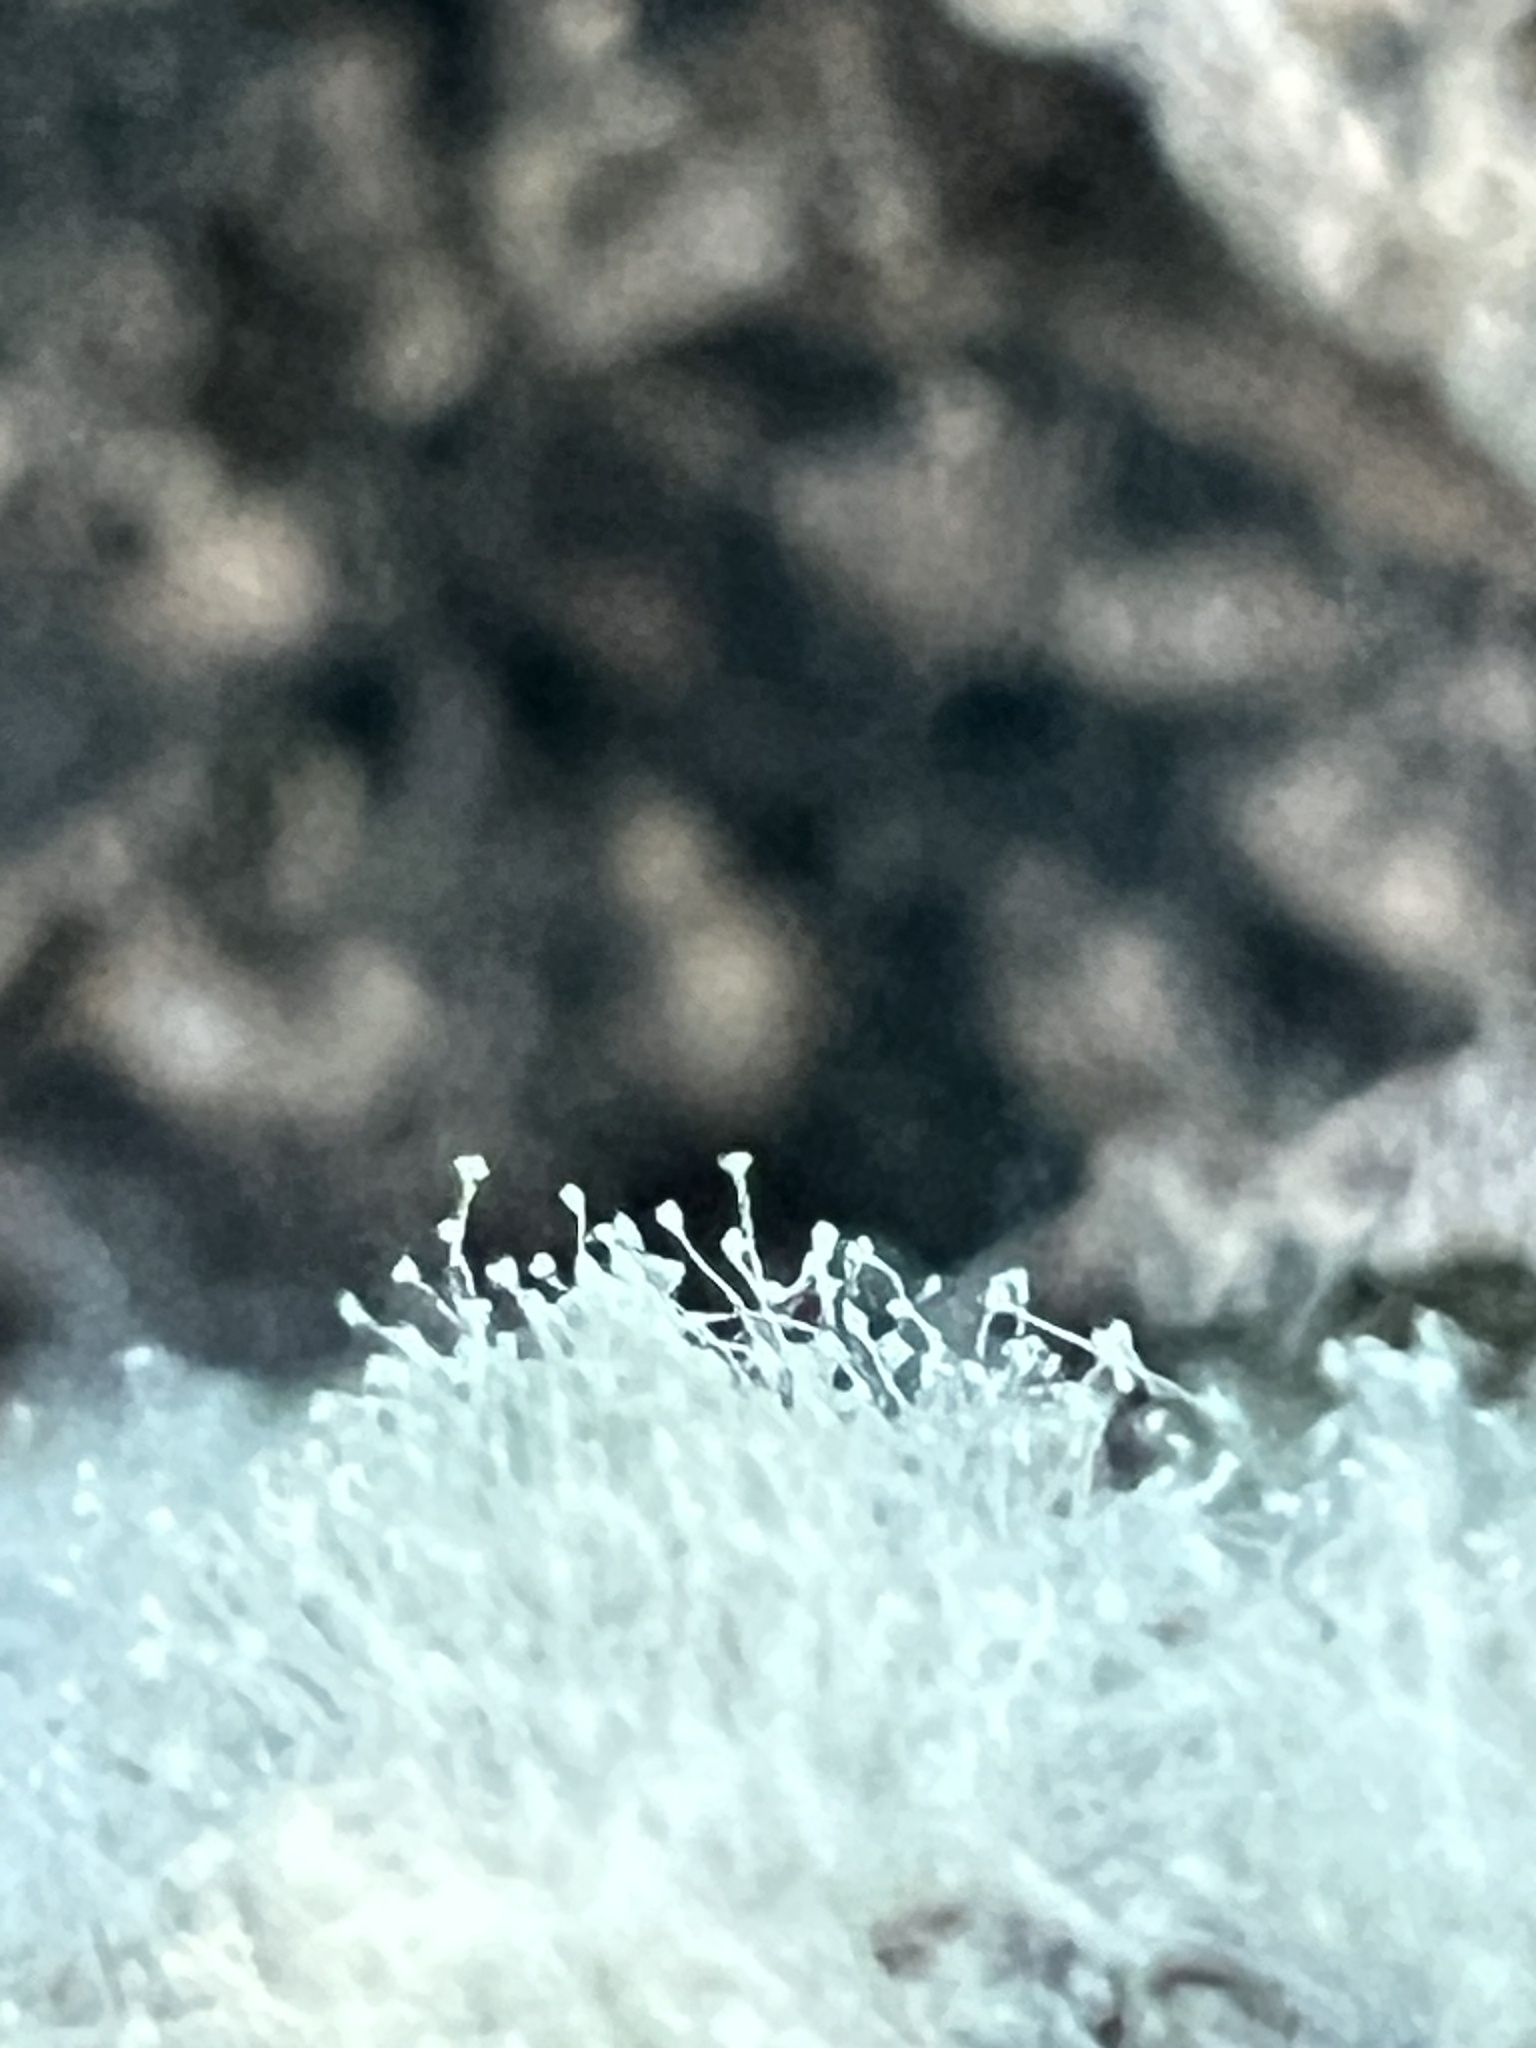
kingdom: Fungi
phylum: Ascomycota
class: Eurotiomycetes
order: Eurotiales
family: Aspergillaceae
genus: Penicillium
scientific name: Penicillium
